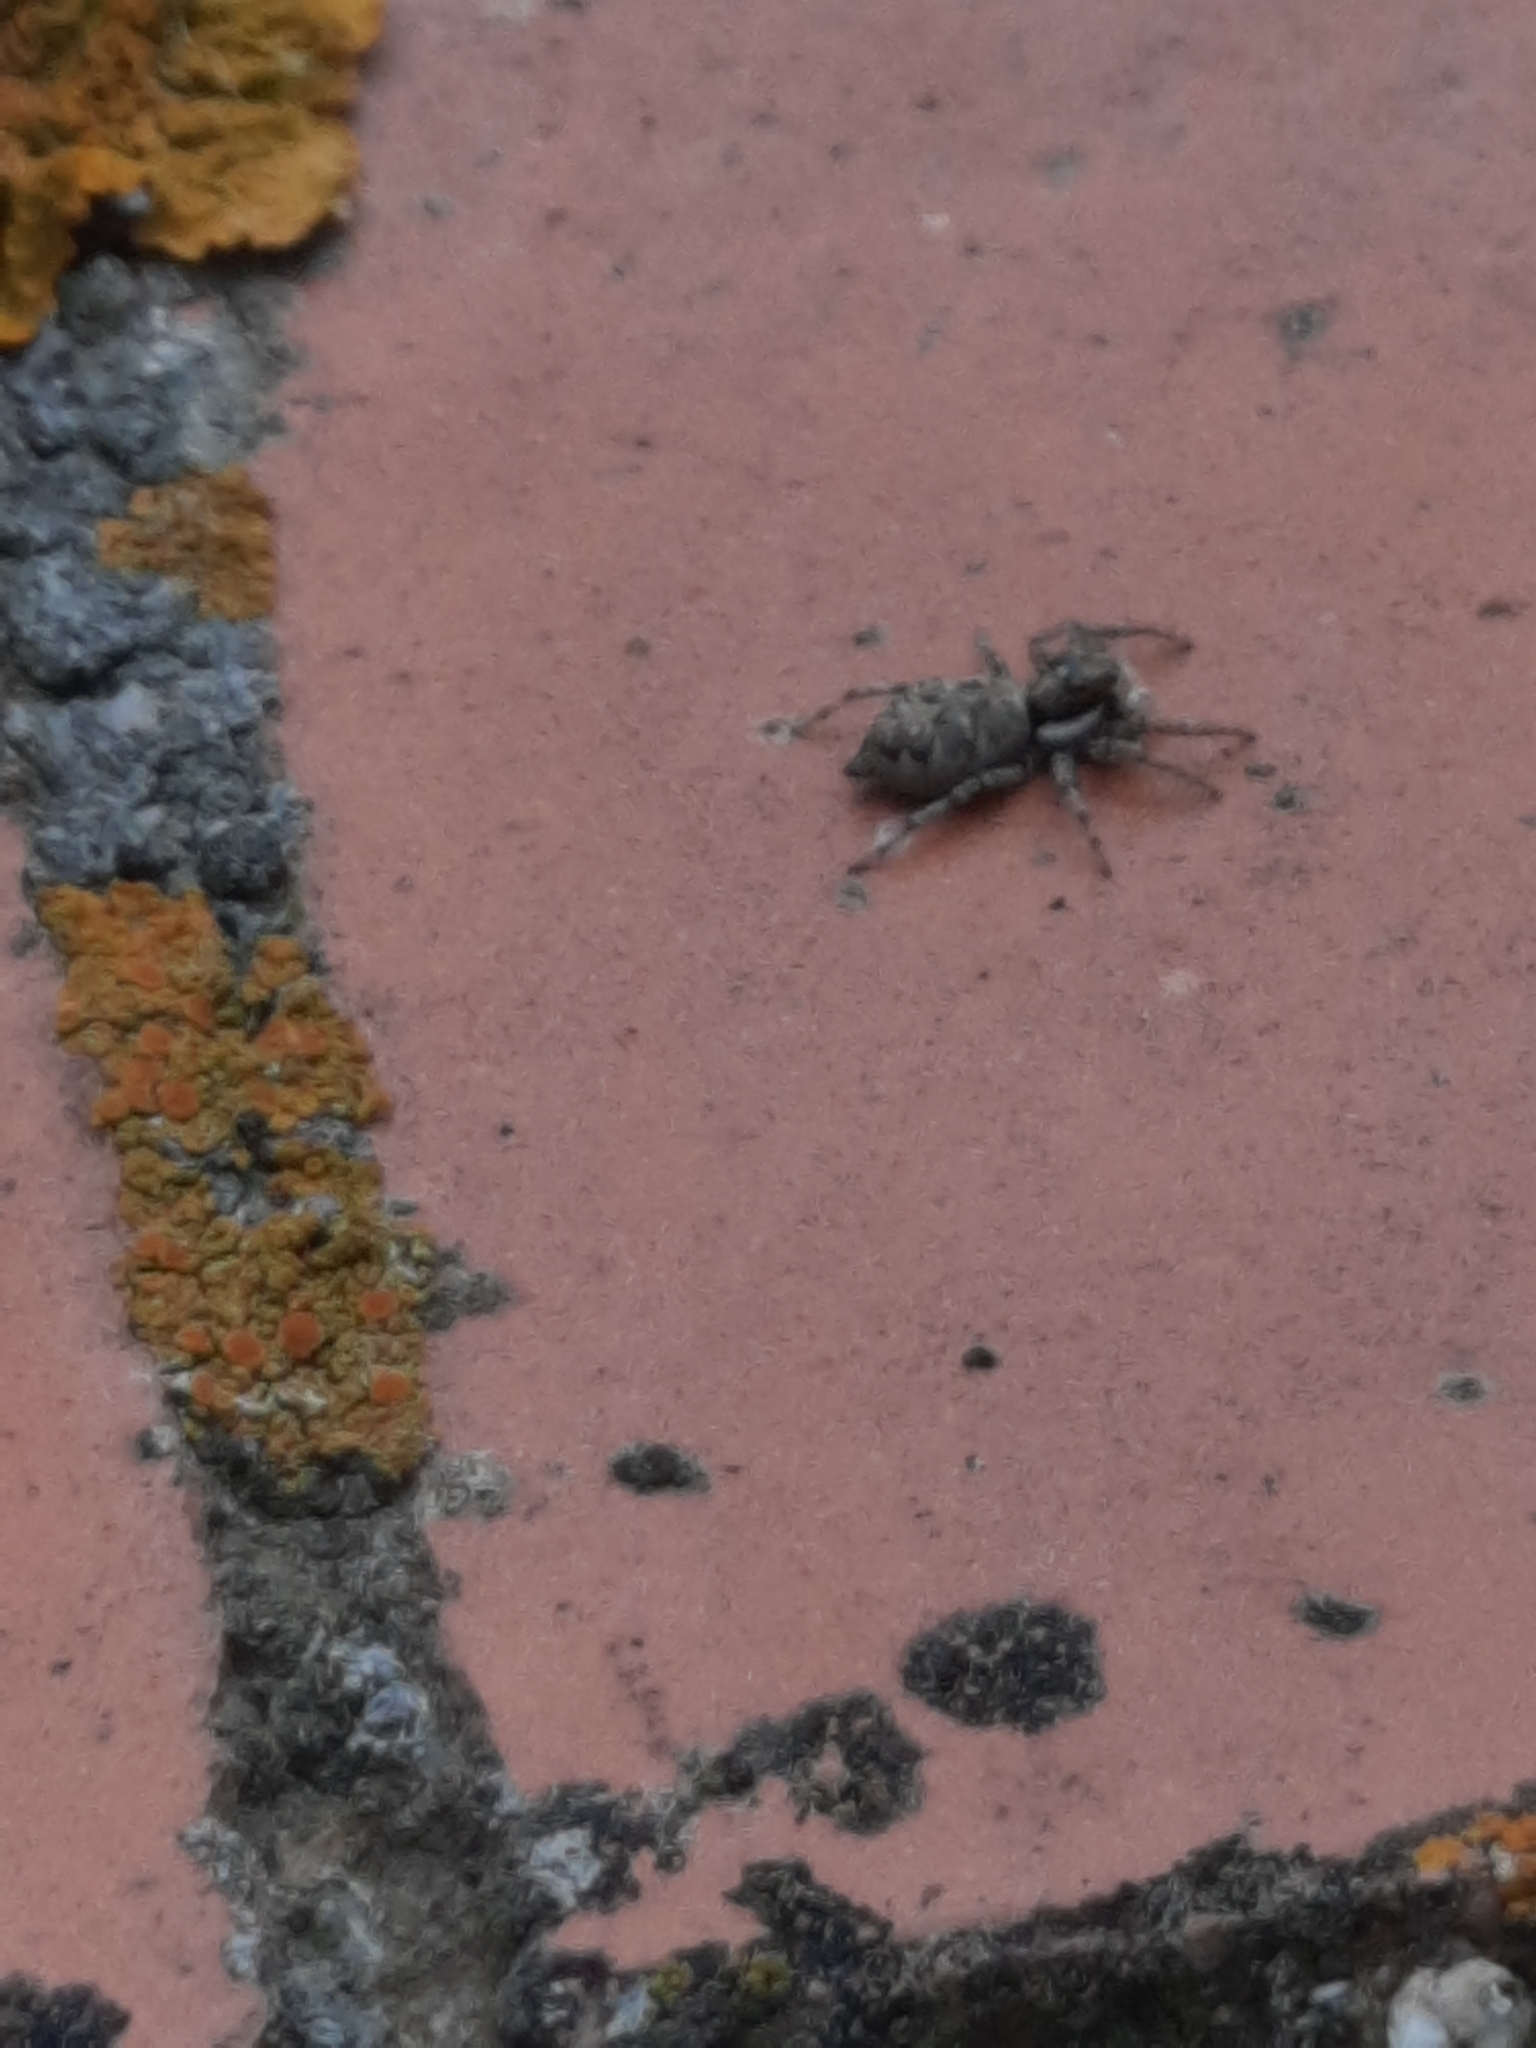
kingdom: Animalia
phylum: Arthropoda
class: Arachnida
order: Araneae
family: Salticidae
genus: Menemerus
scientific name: Menemerus semilimbatus
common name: Jumping spider
